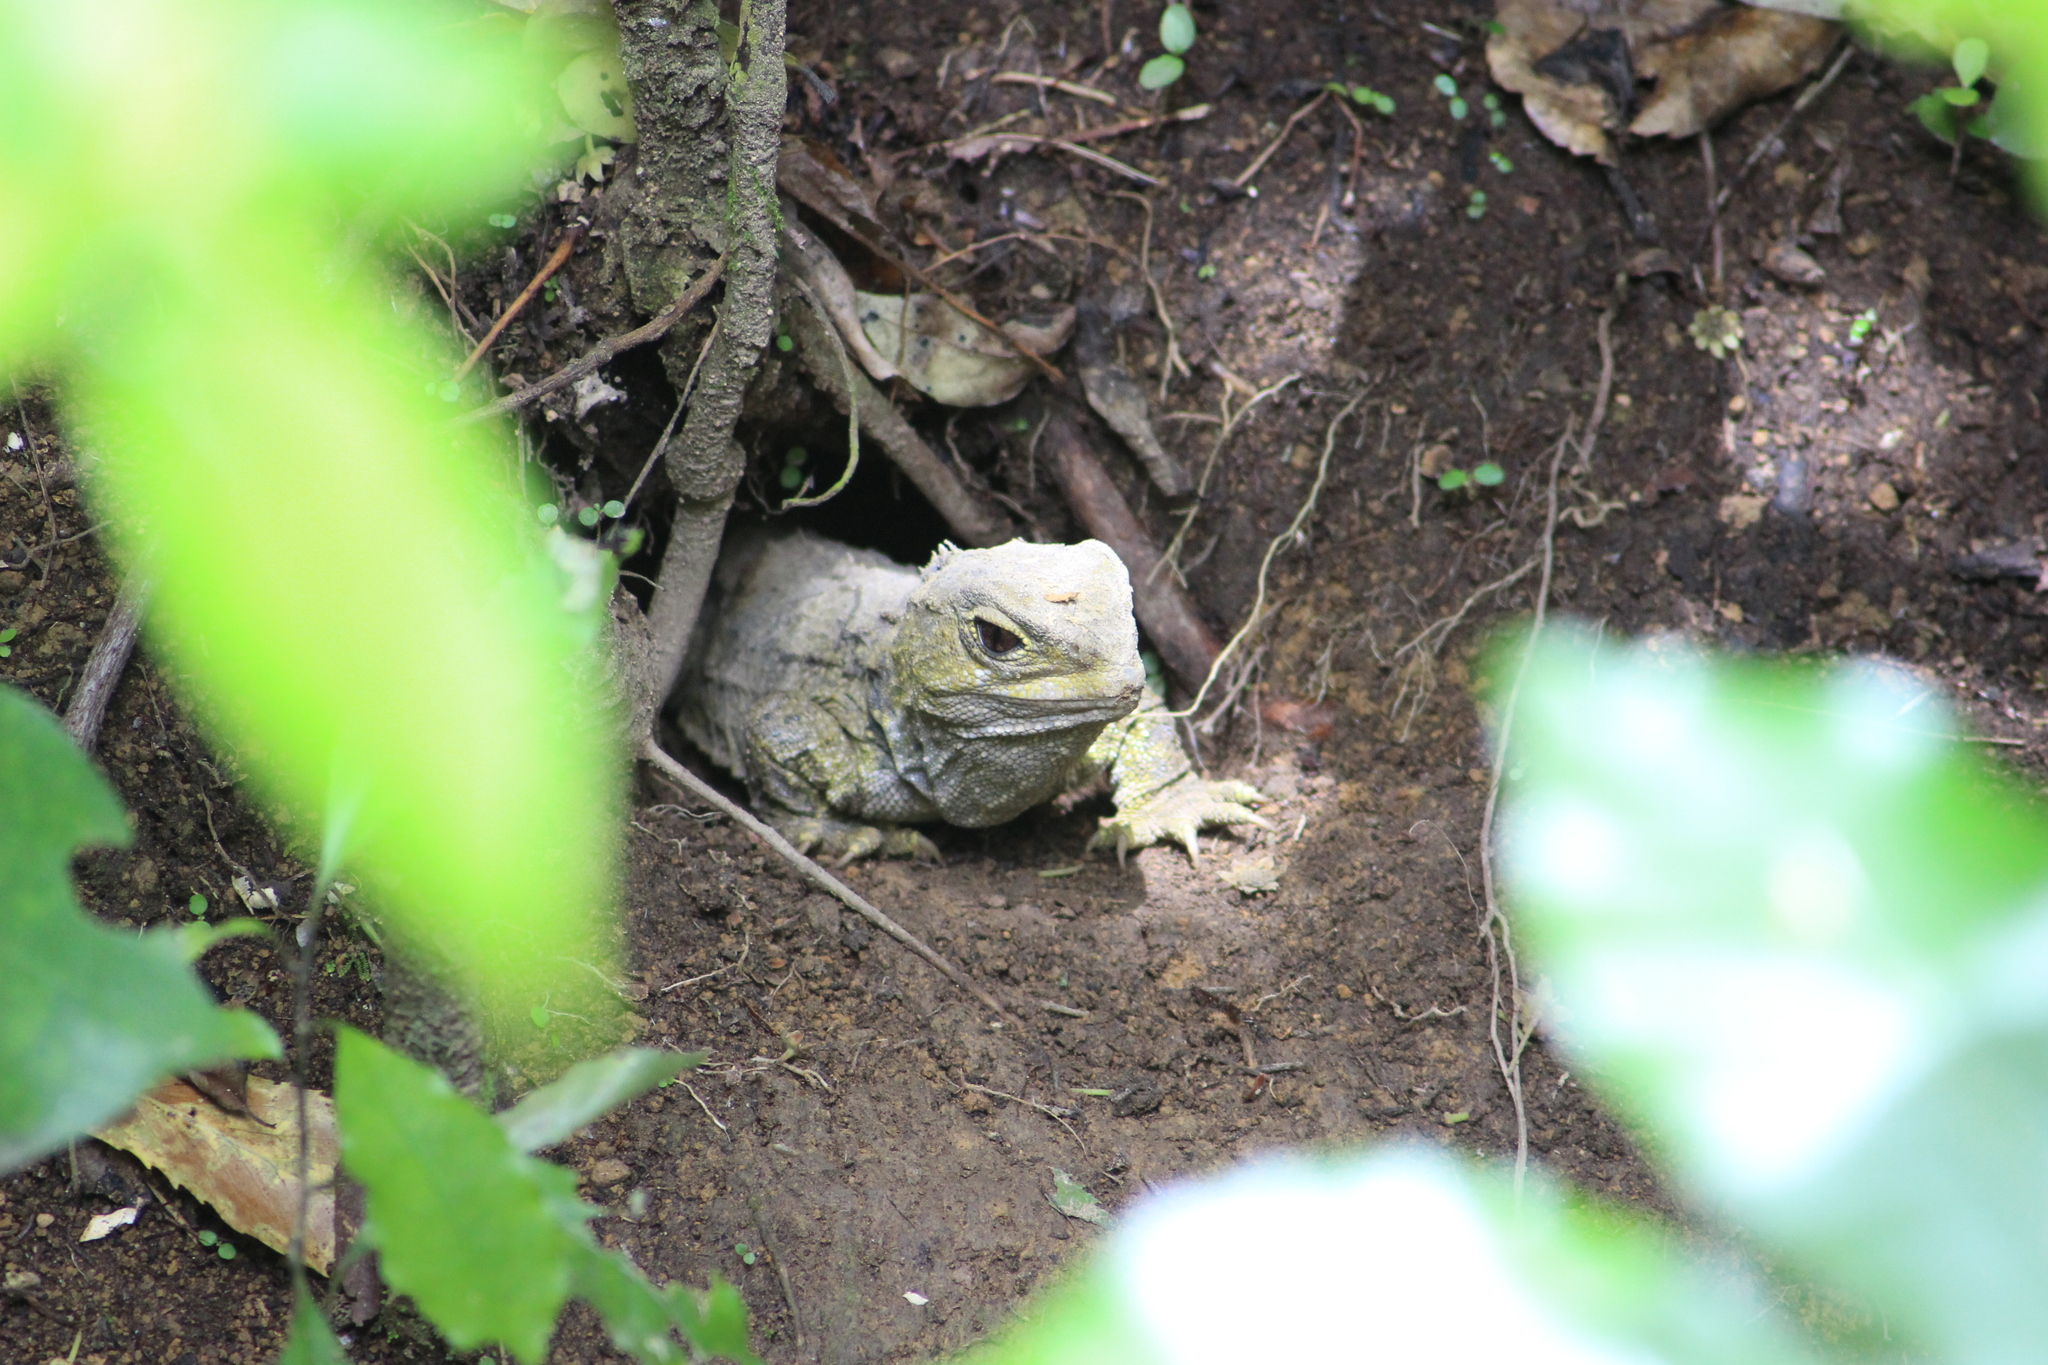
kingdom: Animalia
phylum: Chordata
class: Sphenodontia
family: Sphenodontidae
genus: Sphenodon
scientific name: Sphenodon punctatus
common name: Tuatara
